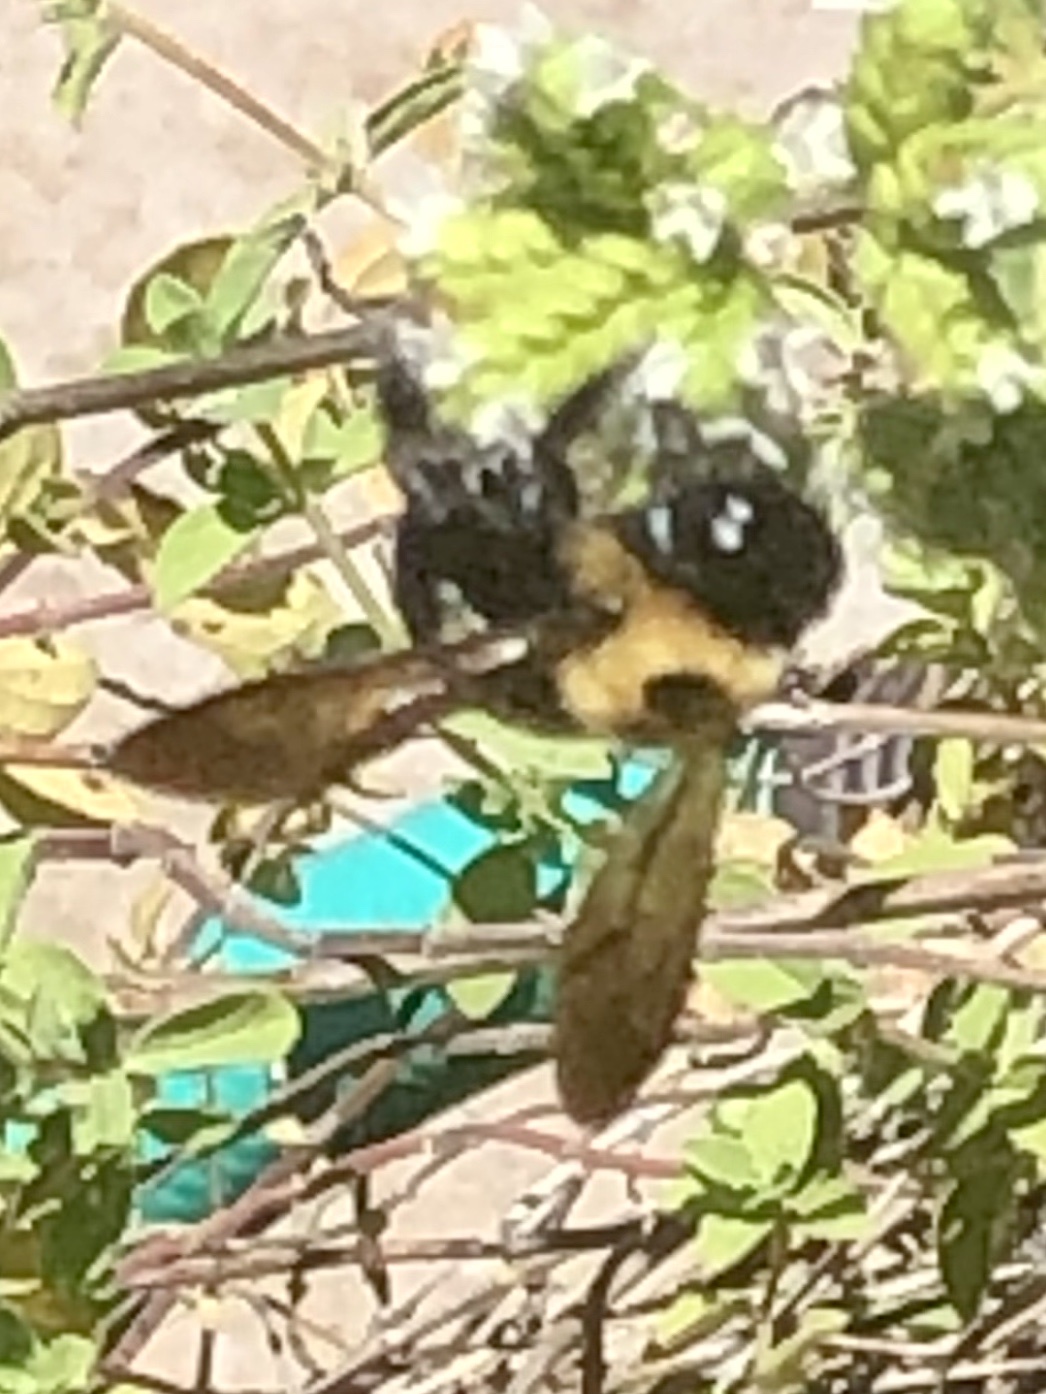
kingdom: Animalia
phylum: Arthropoda
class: Insecta
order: Hymenoptera
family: Apidae
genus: Xylocopa
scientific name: Xylocopa virginica
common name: Carpenter bee
